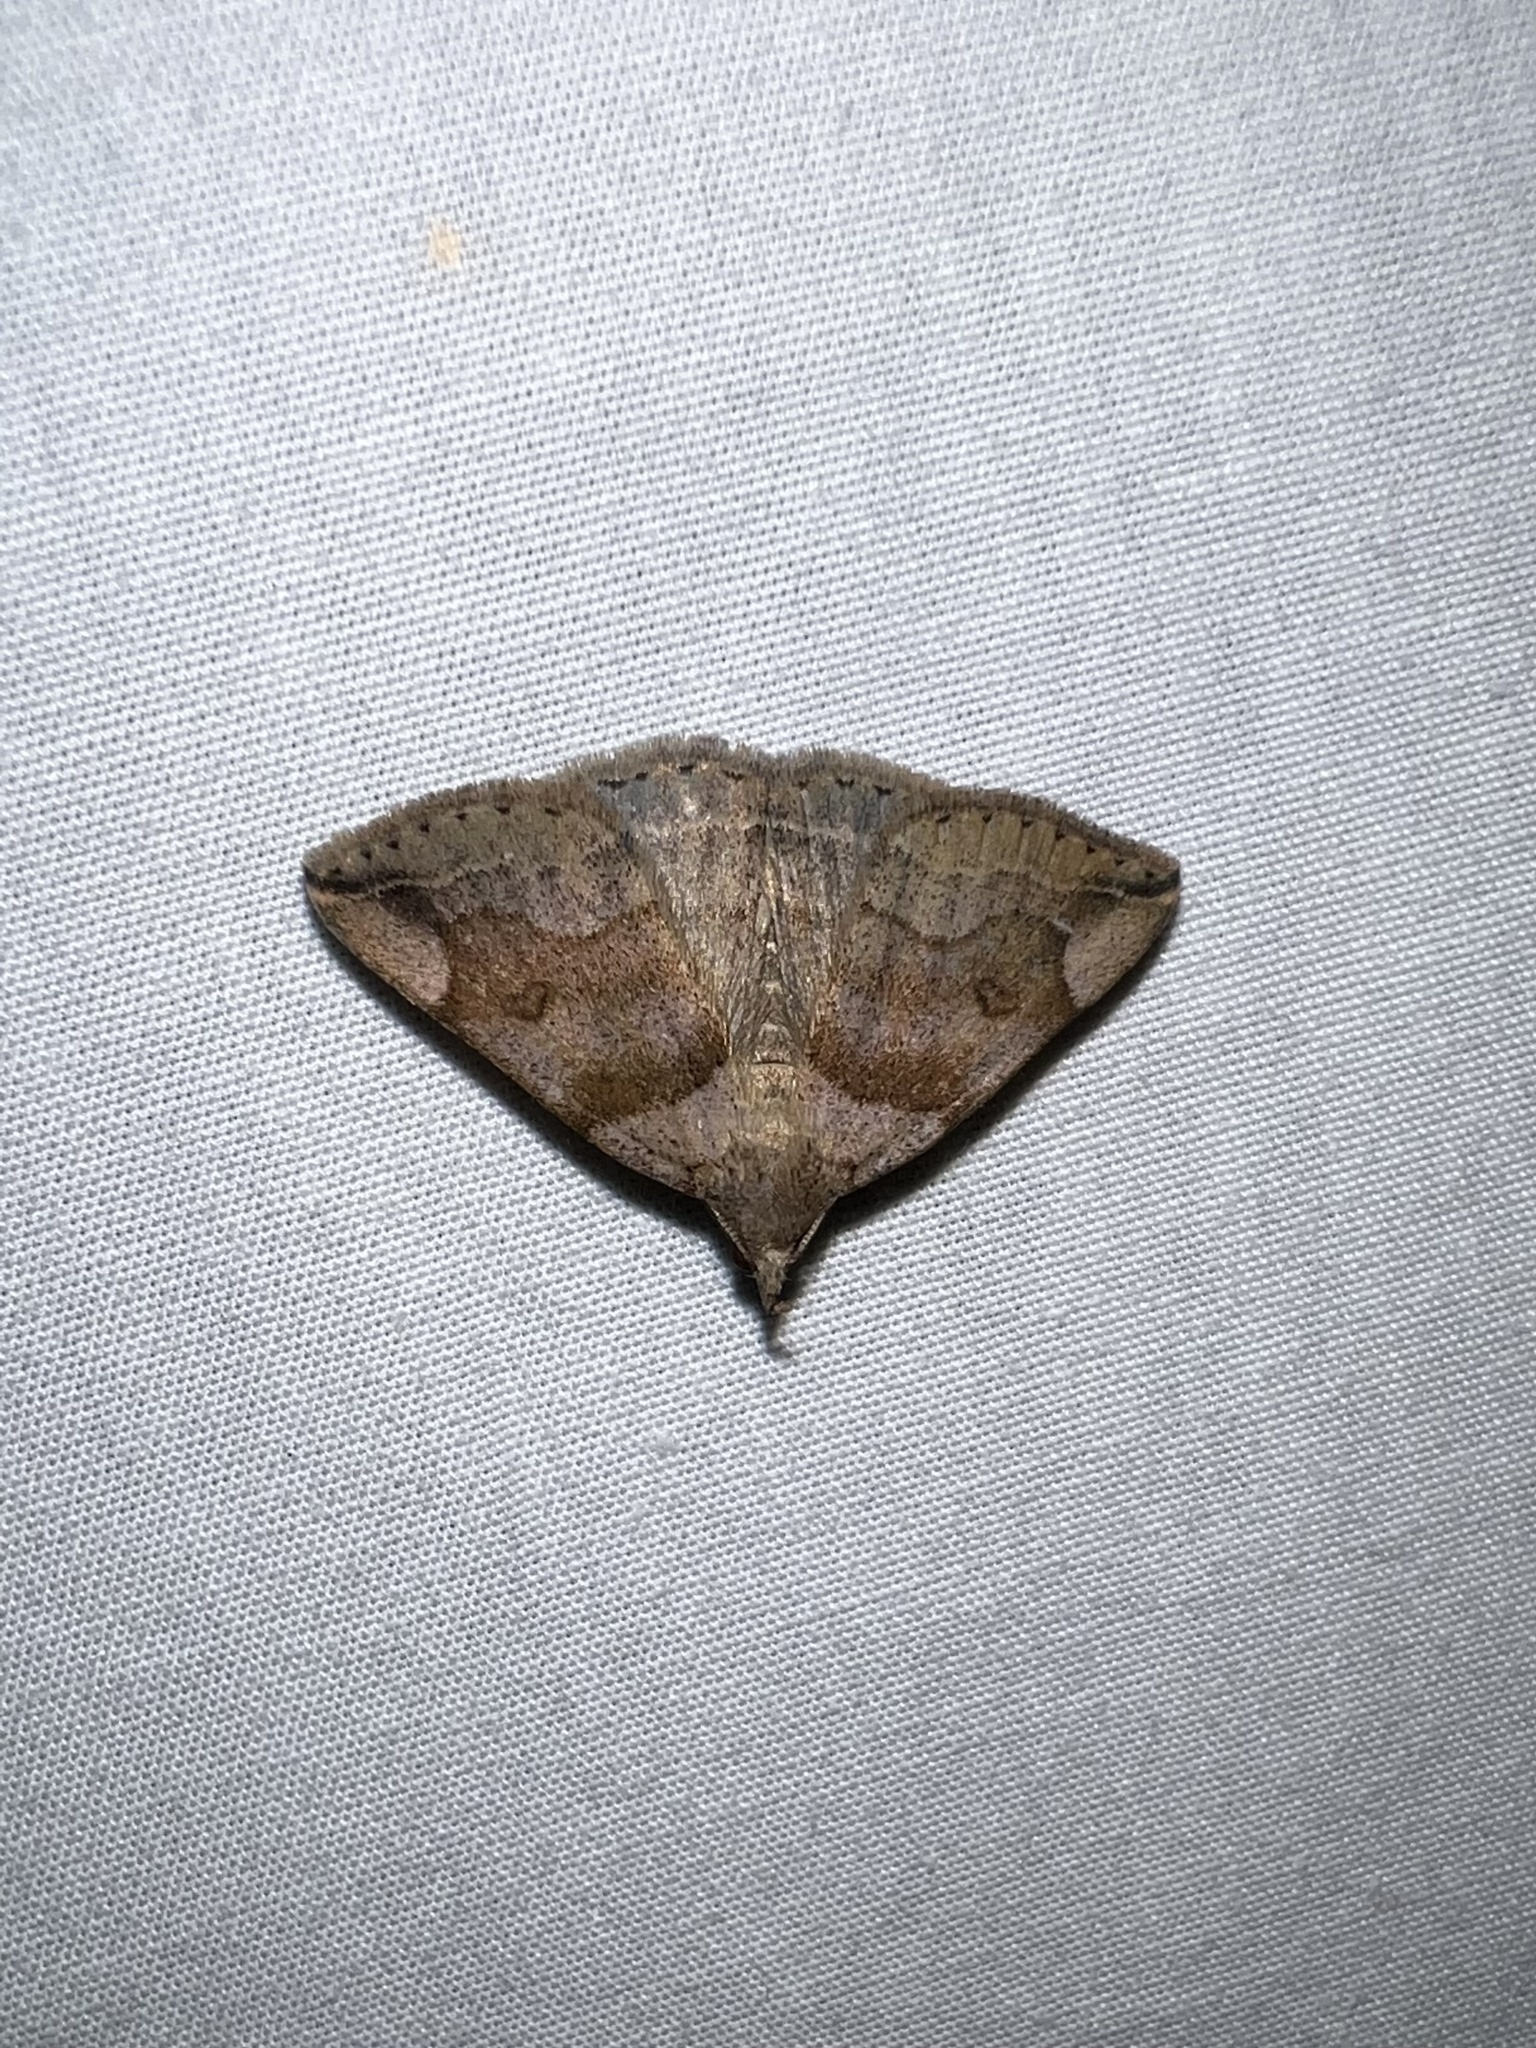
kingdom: Animalia
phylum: Arthropoda
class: Insecta
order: Lepidoptera
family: Erebidae
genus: Zanclognatha
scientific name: Zanclognatha laevigata
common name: Variable fan-foot
